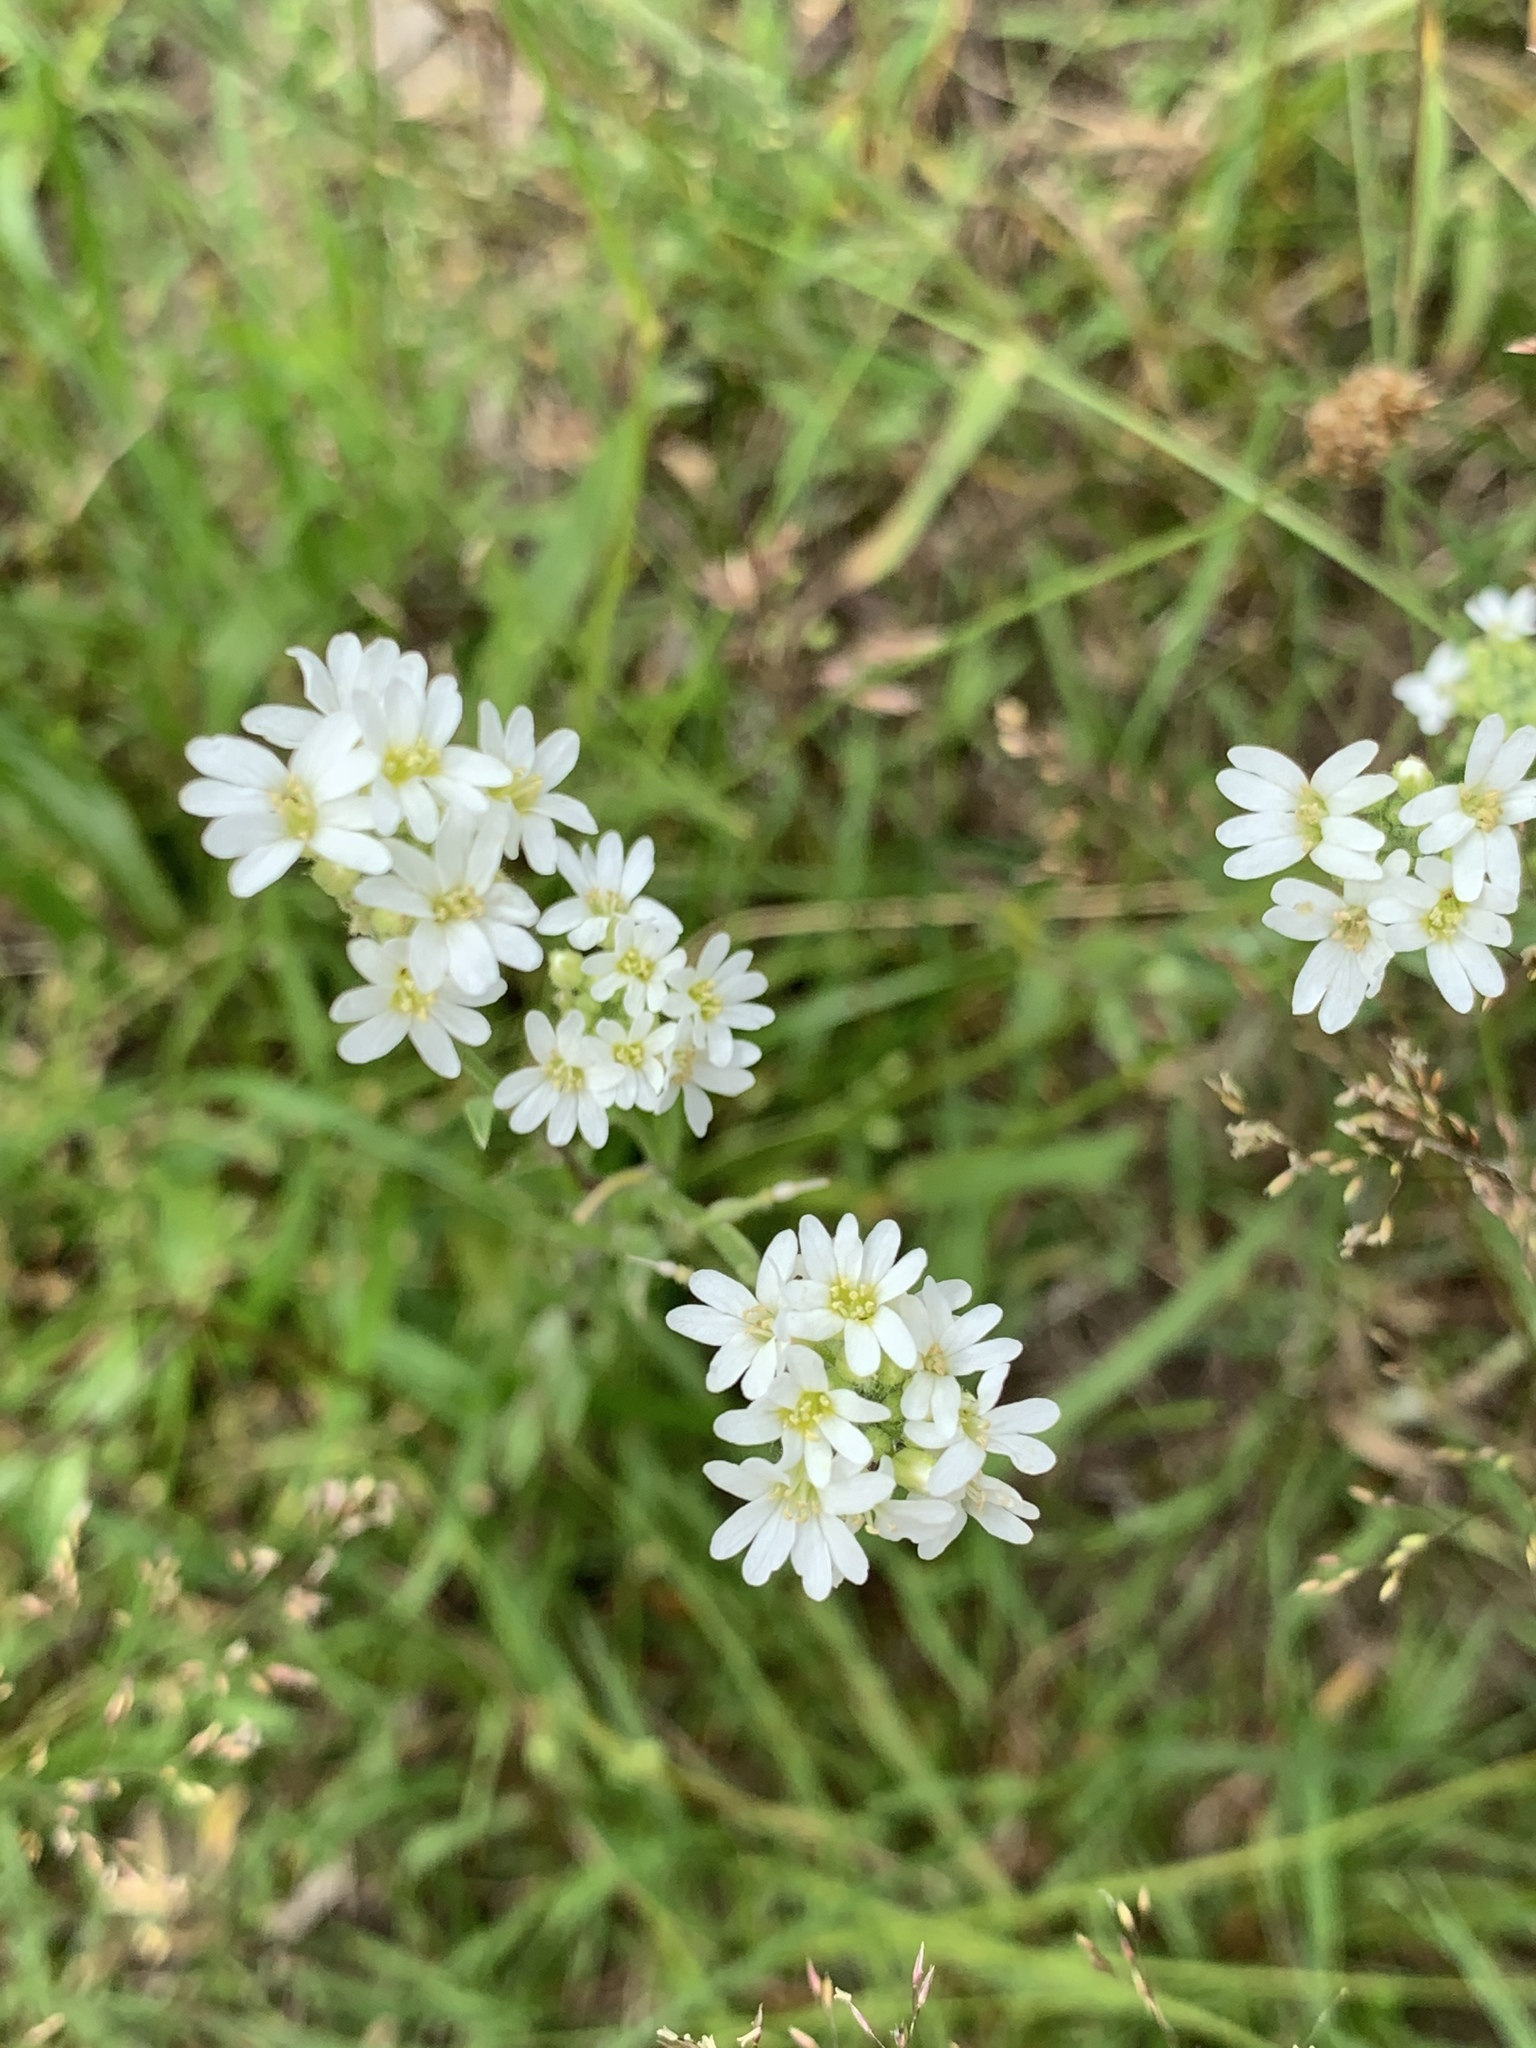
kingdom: Plantae
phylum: Tracheophyta
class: Magnoliopsida
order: Brassicales
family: Brassicaceae
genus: Berteroa
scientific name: Berteroa incana
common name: Hoary alison
